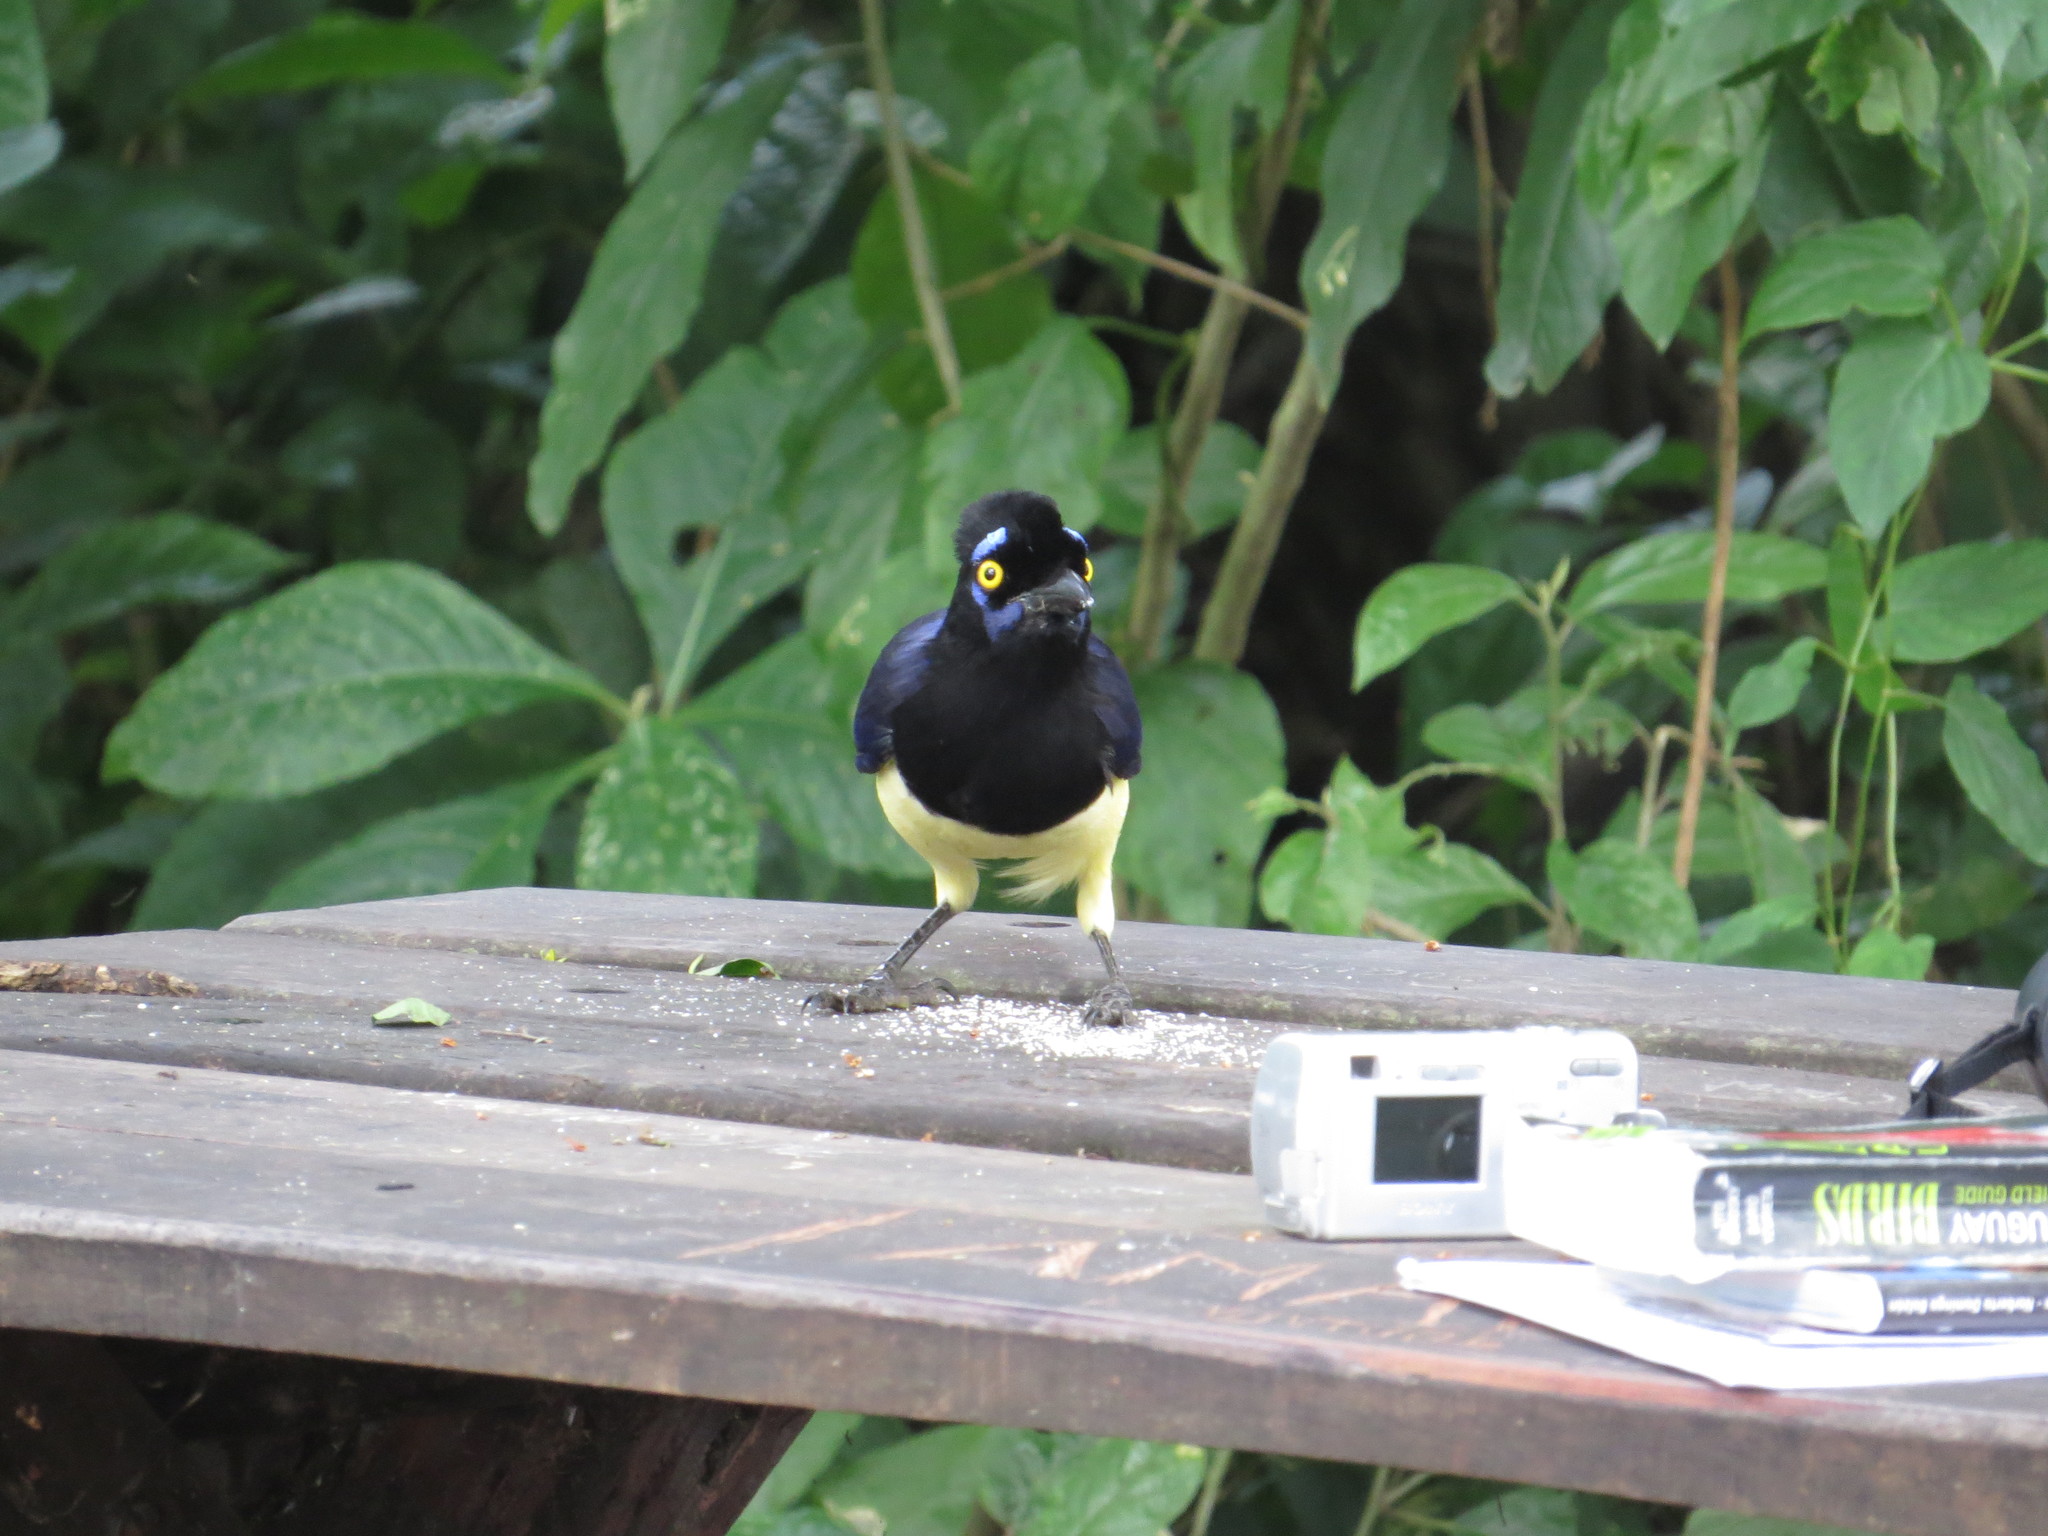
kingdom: Animalia
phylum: Chordata
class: Aves
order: Passeriformes
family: Corvidae
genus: Cyanocorax
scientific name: Cyanocorax chrysops
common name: Plush-crested jay
